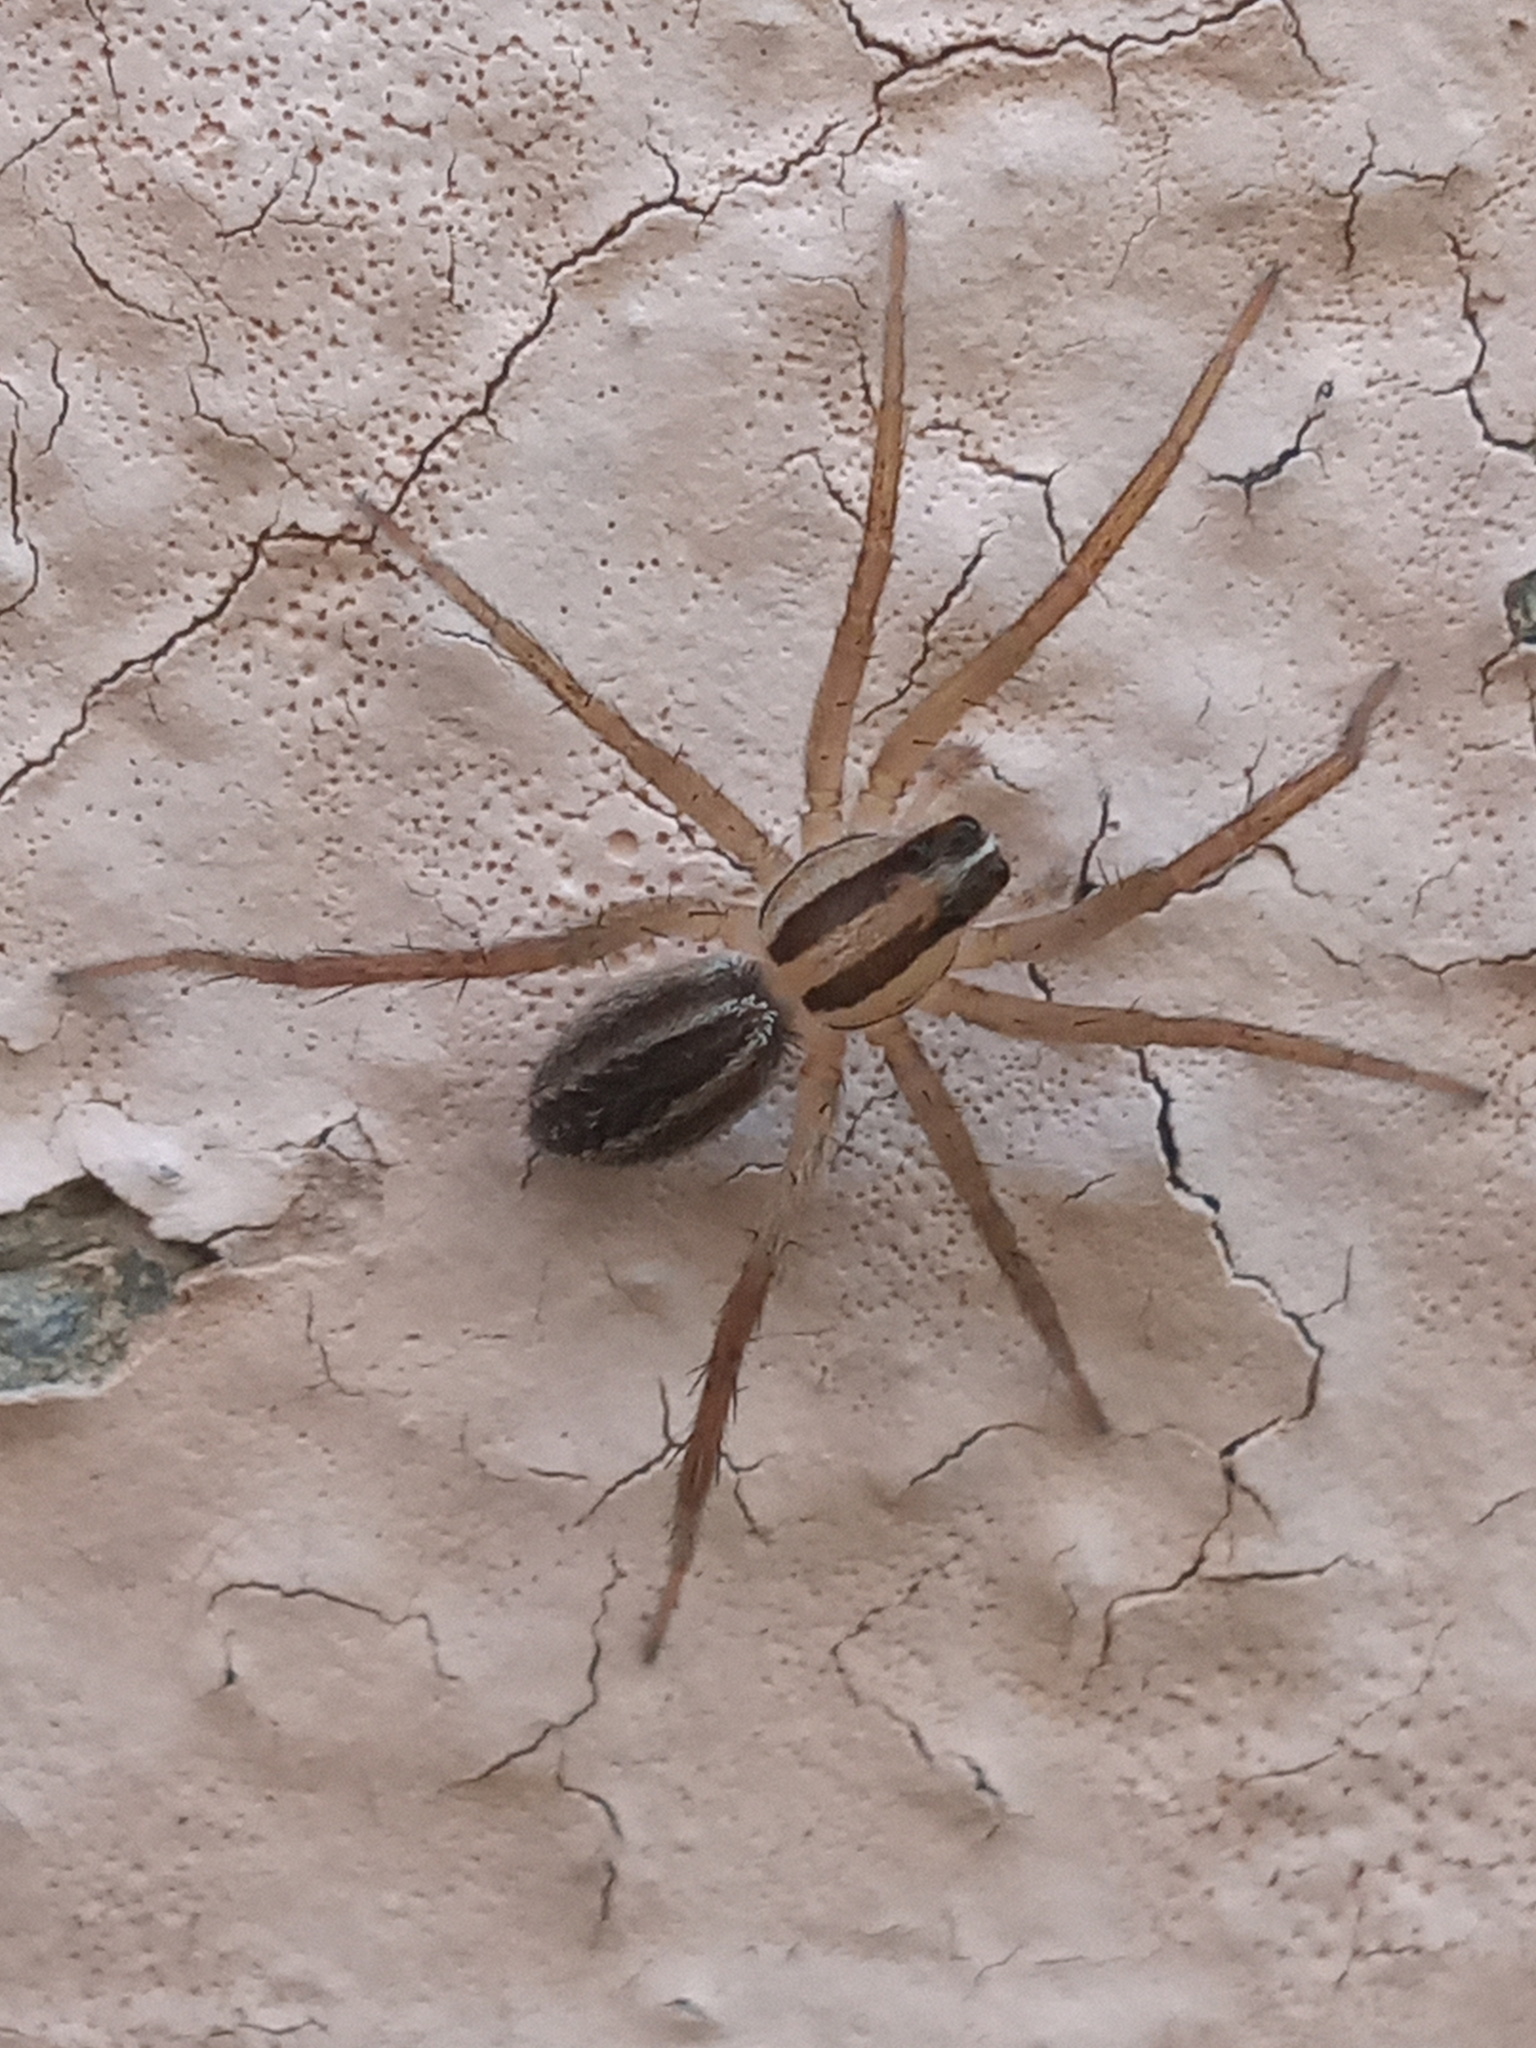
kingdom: Animalia
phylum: Arthropoda
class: Arachnida
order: Araneae
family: Lycosidae
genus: Rabidosa
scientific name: Rabidosa rabida
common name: Rabid wolf spider
